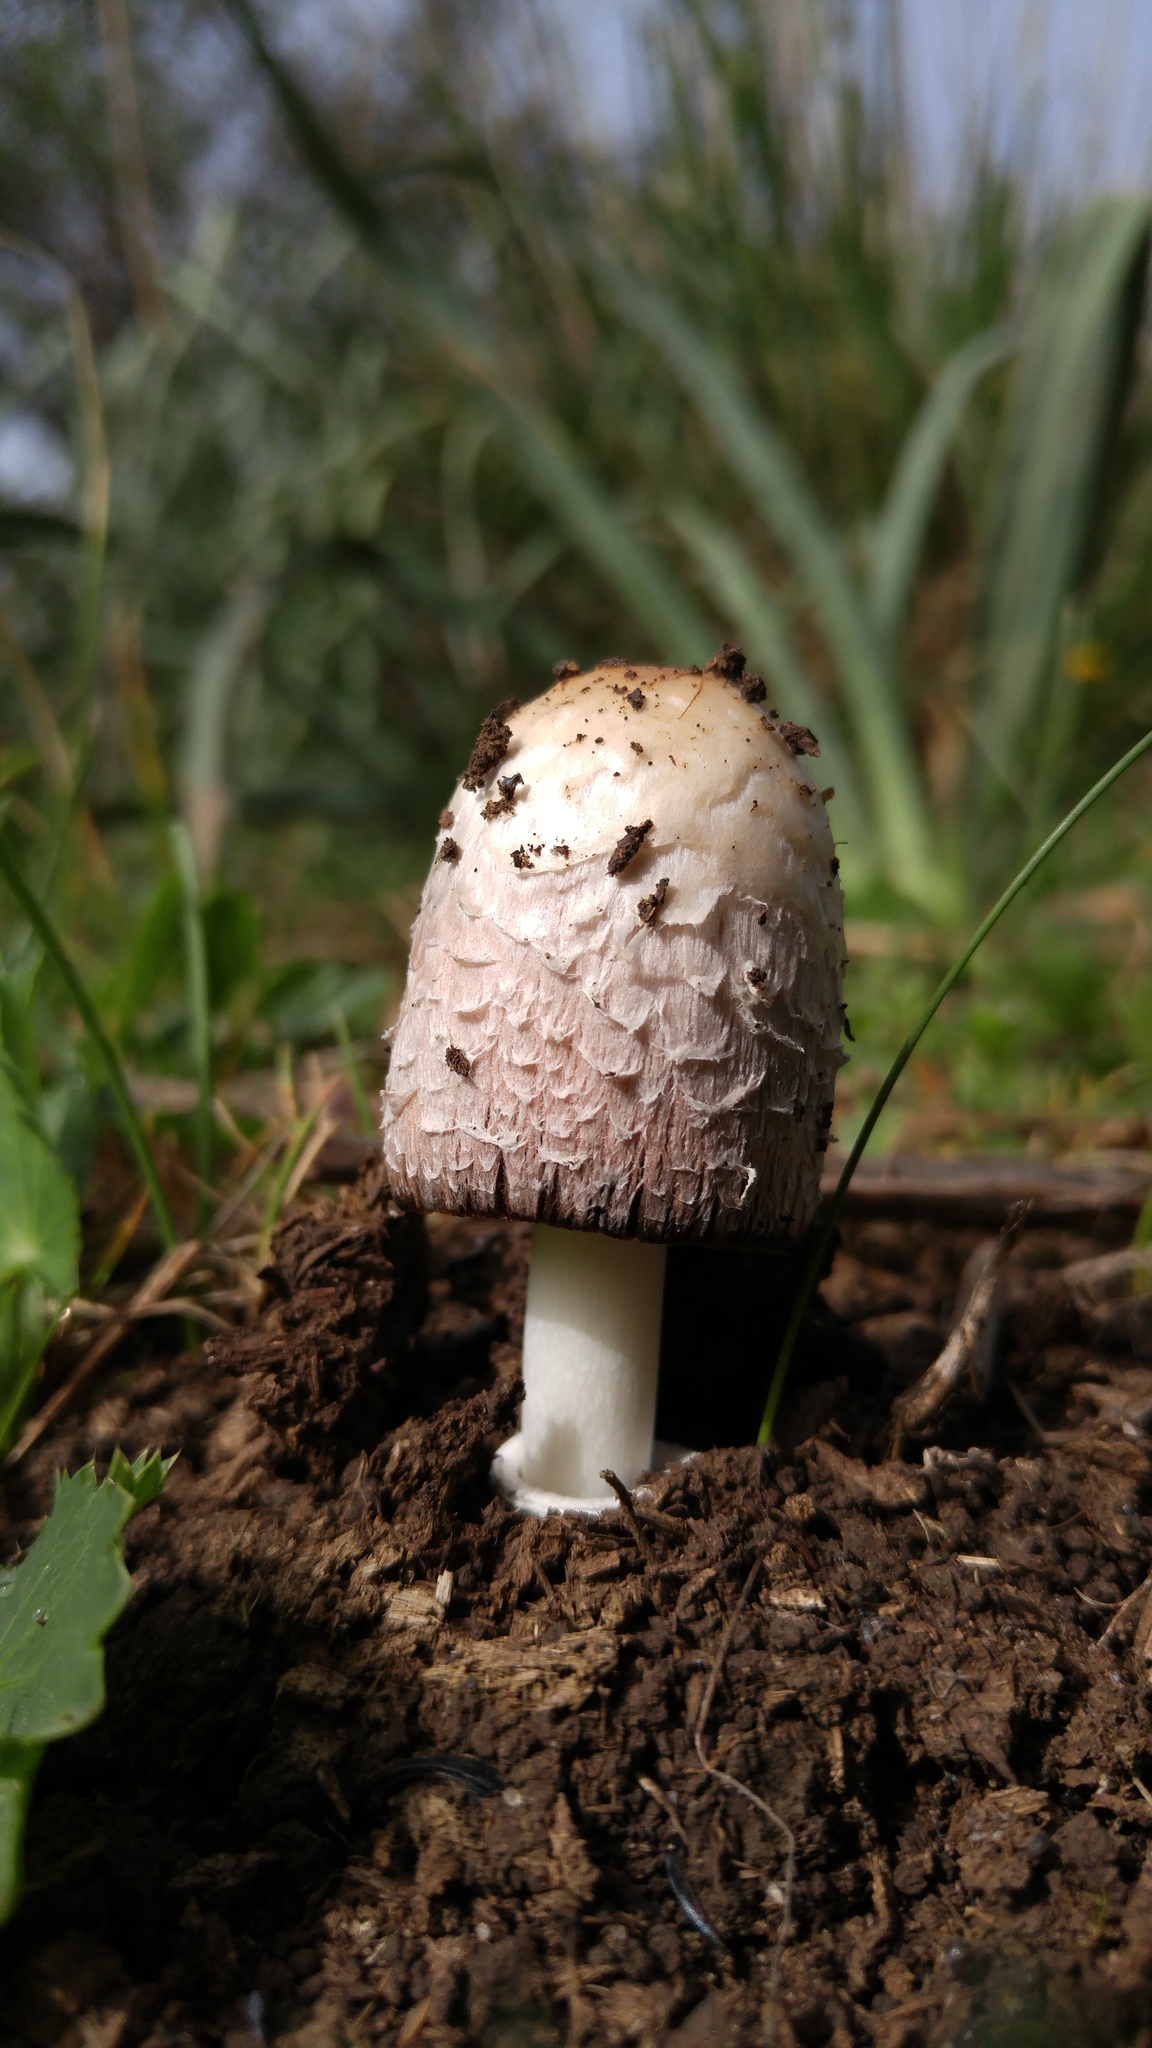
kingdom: Fungi
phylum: Basidiomycota
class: Agaricomycetes
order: Agaricales
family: Agaricaceae
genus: Coprinus
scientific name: Coprinus comatus
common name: Lawyer's wig
